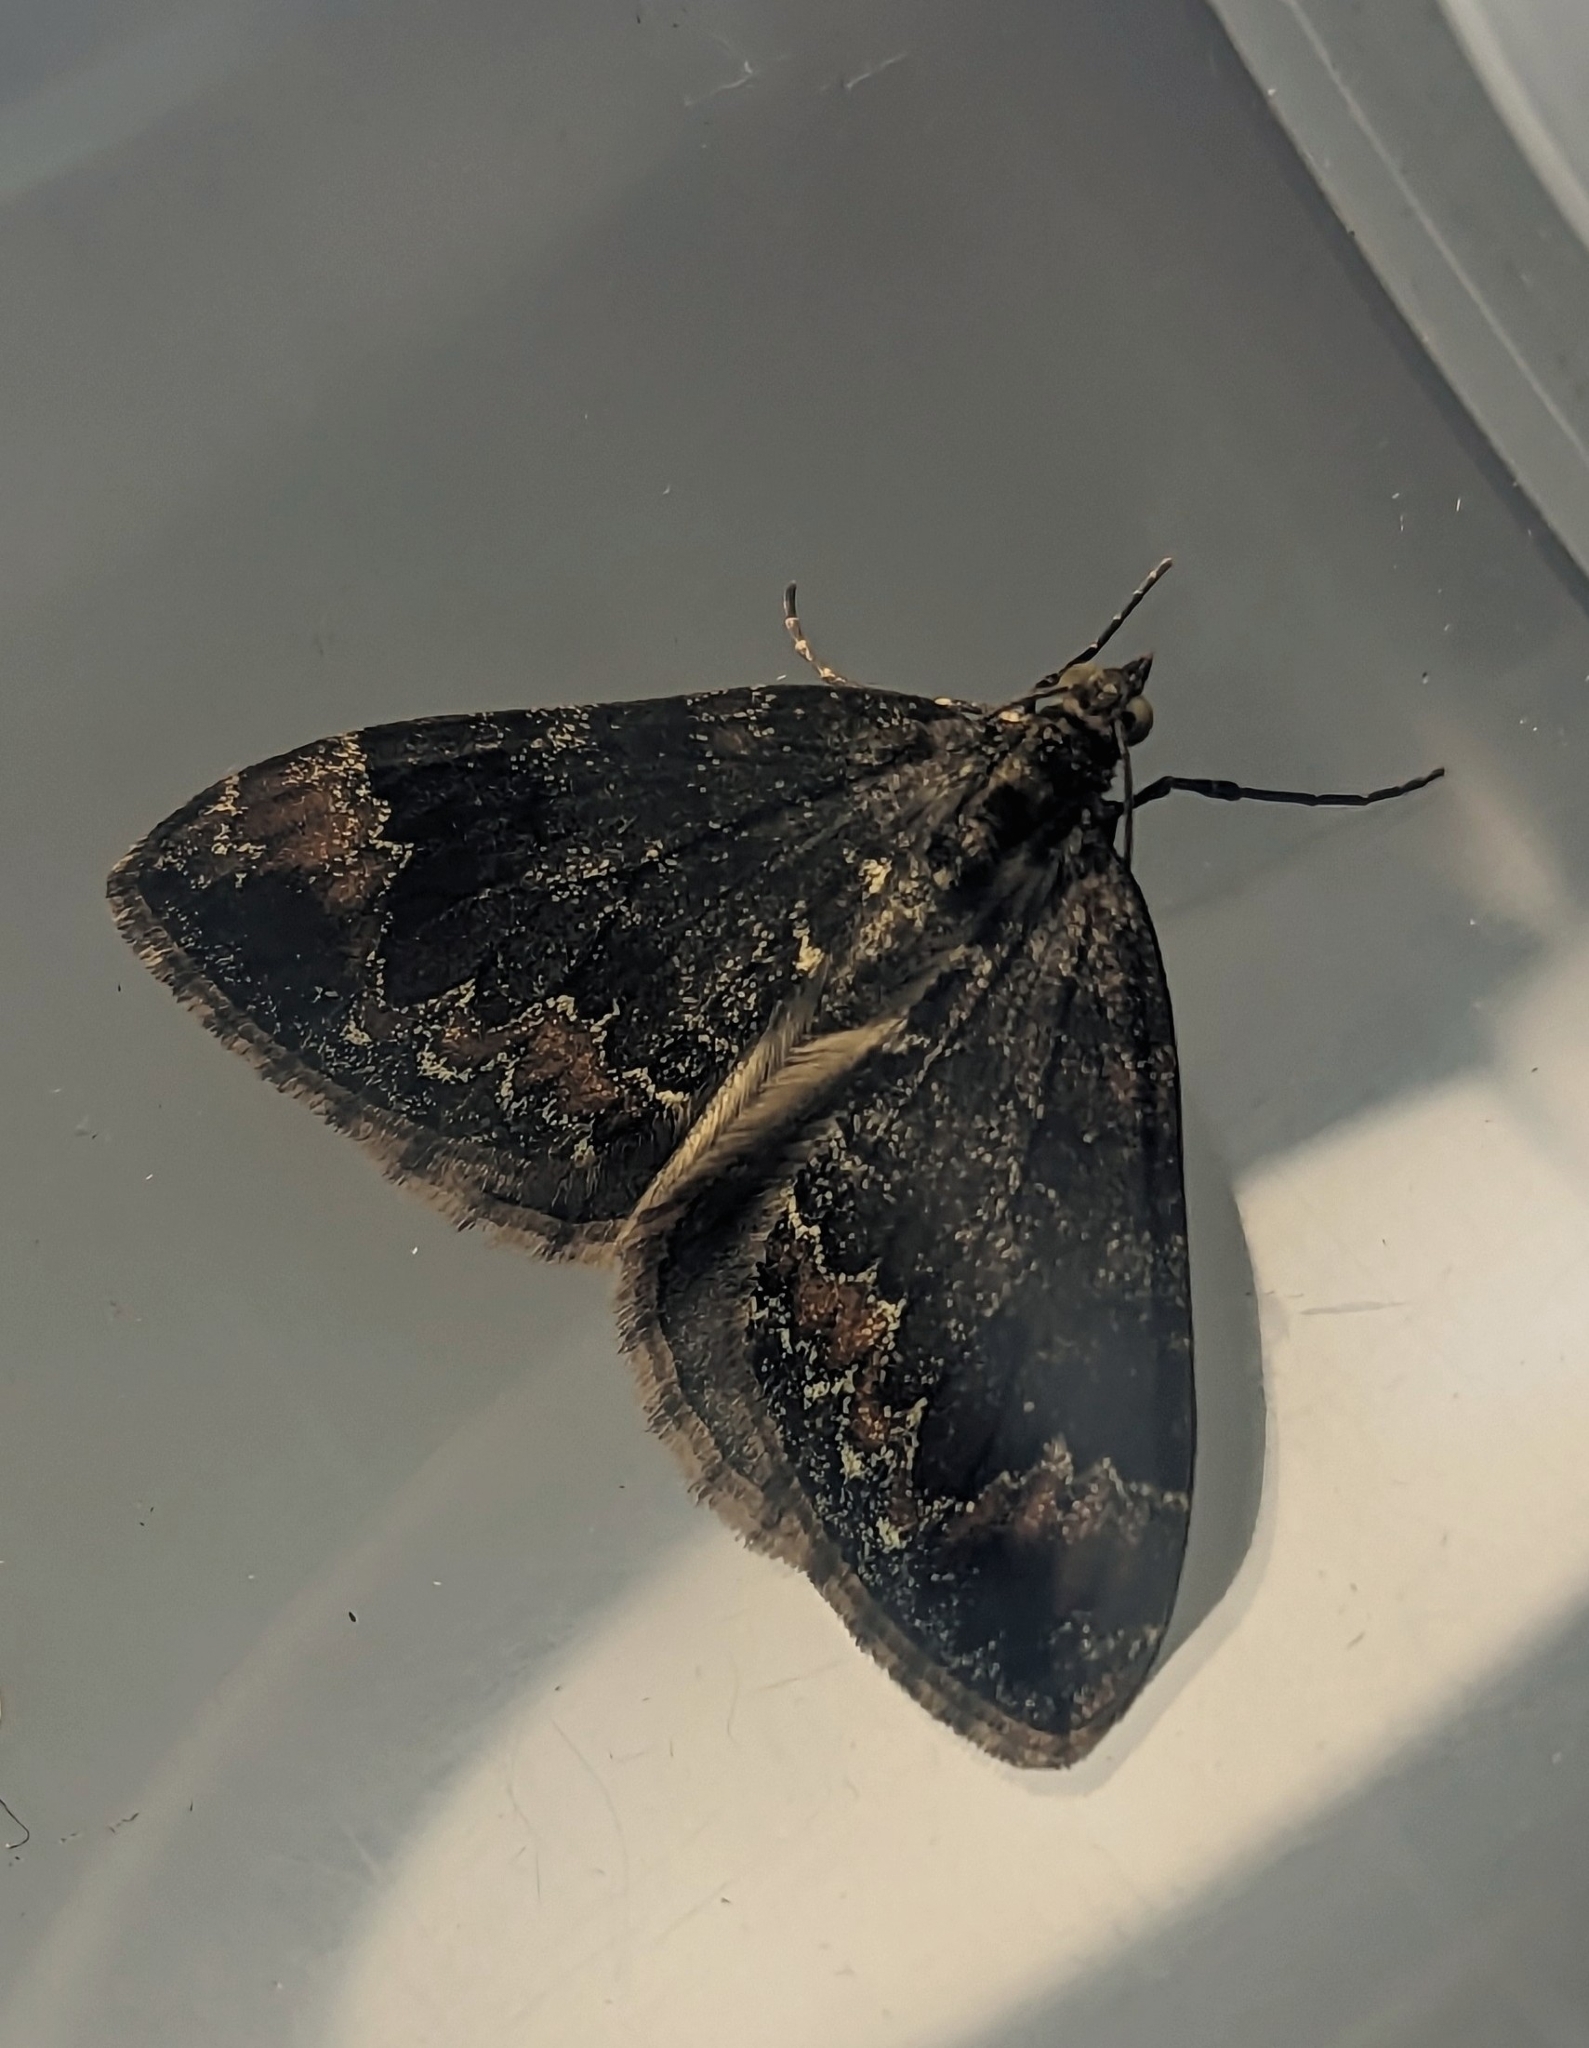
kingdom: Animalia
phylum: Arthropoda
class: Insecta
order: Lepidoptera
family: Geometridae
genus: Dysstroma
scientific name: Dysstroma truncata
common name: Common marbled carpet
